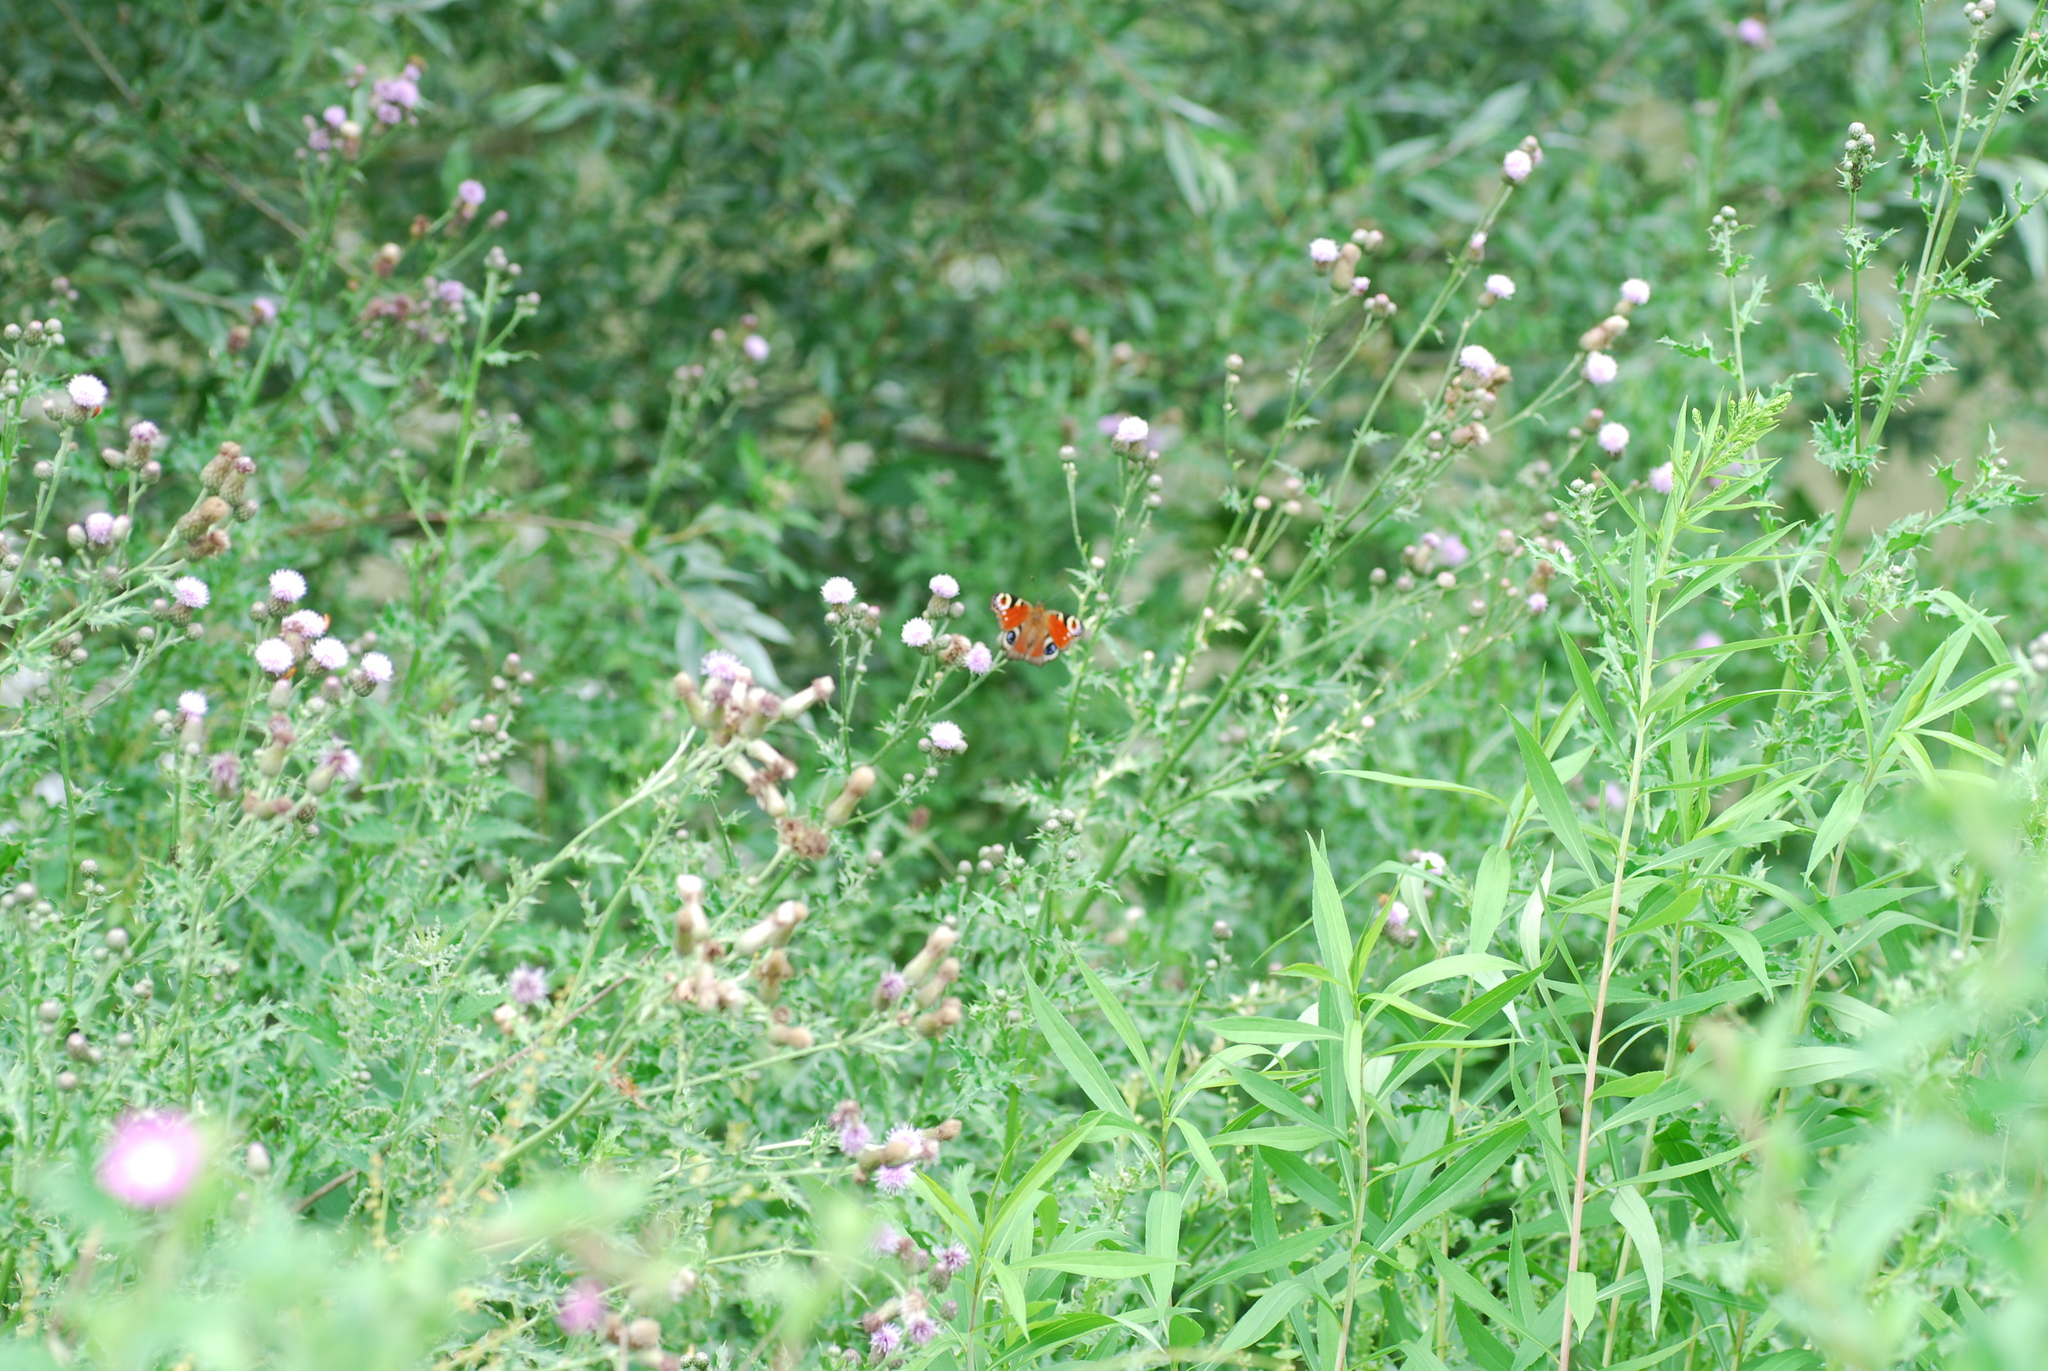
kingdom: Animalia
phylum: Arthropoda
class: Insecta
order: Lepidoptera
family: Nymphalidae
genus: Aglais
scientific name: Aglais io
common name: Peacock
